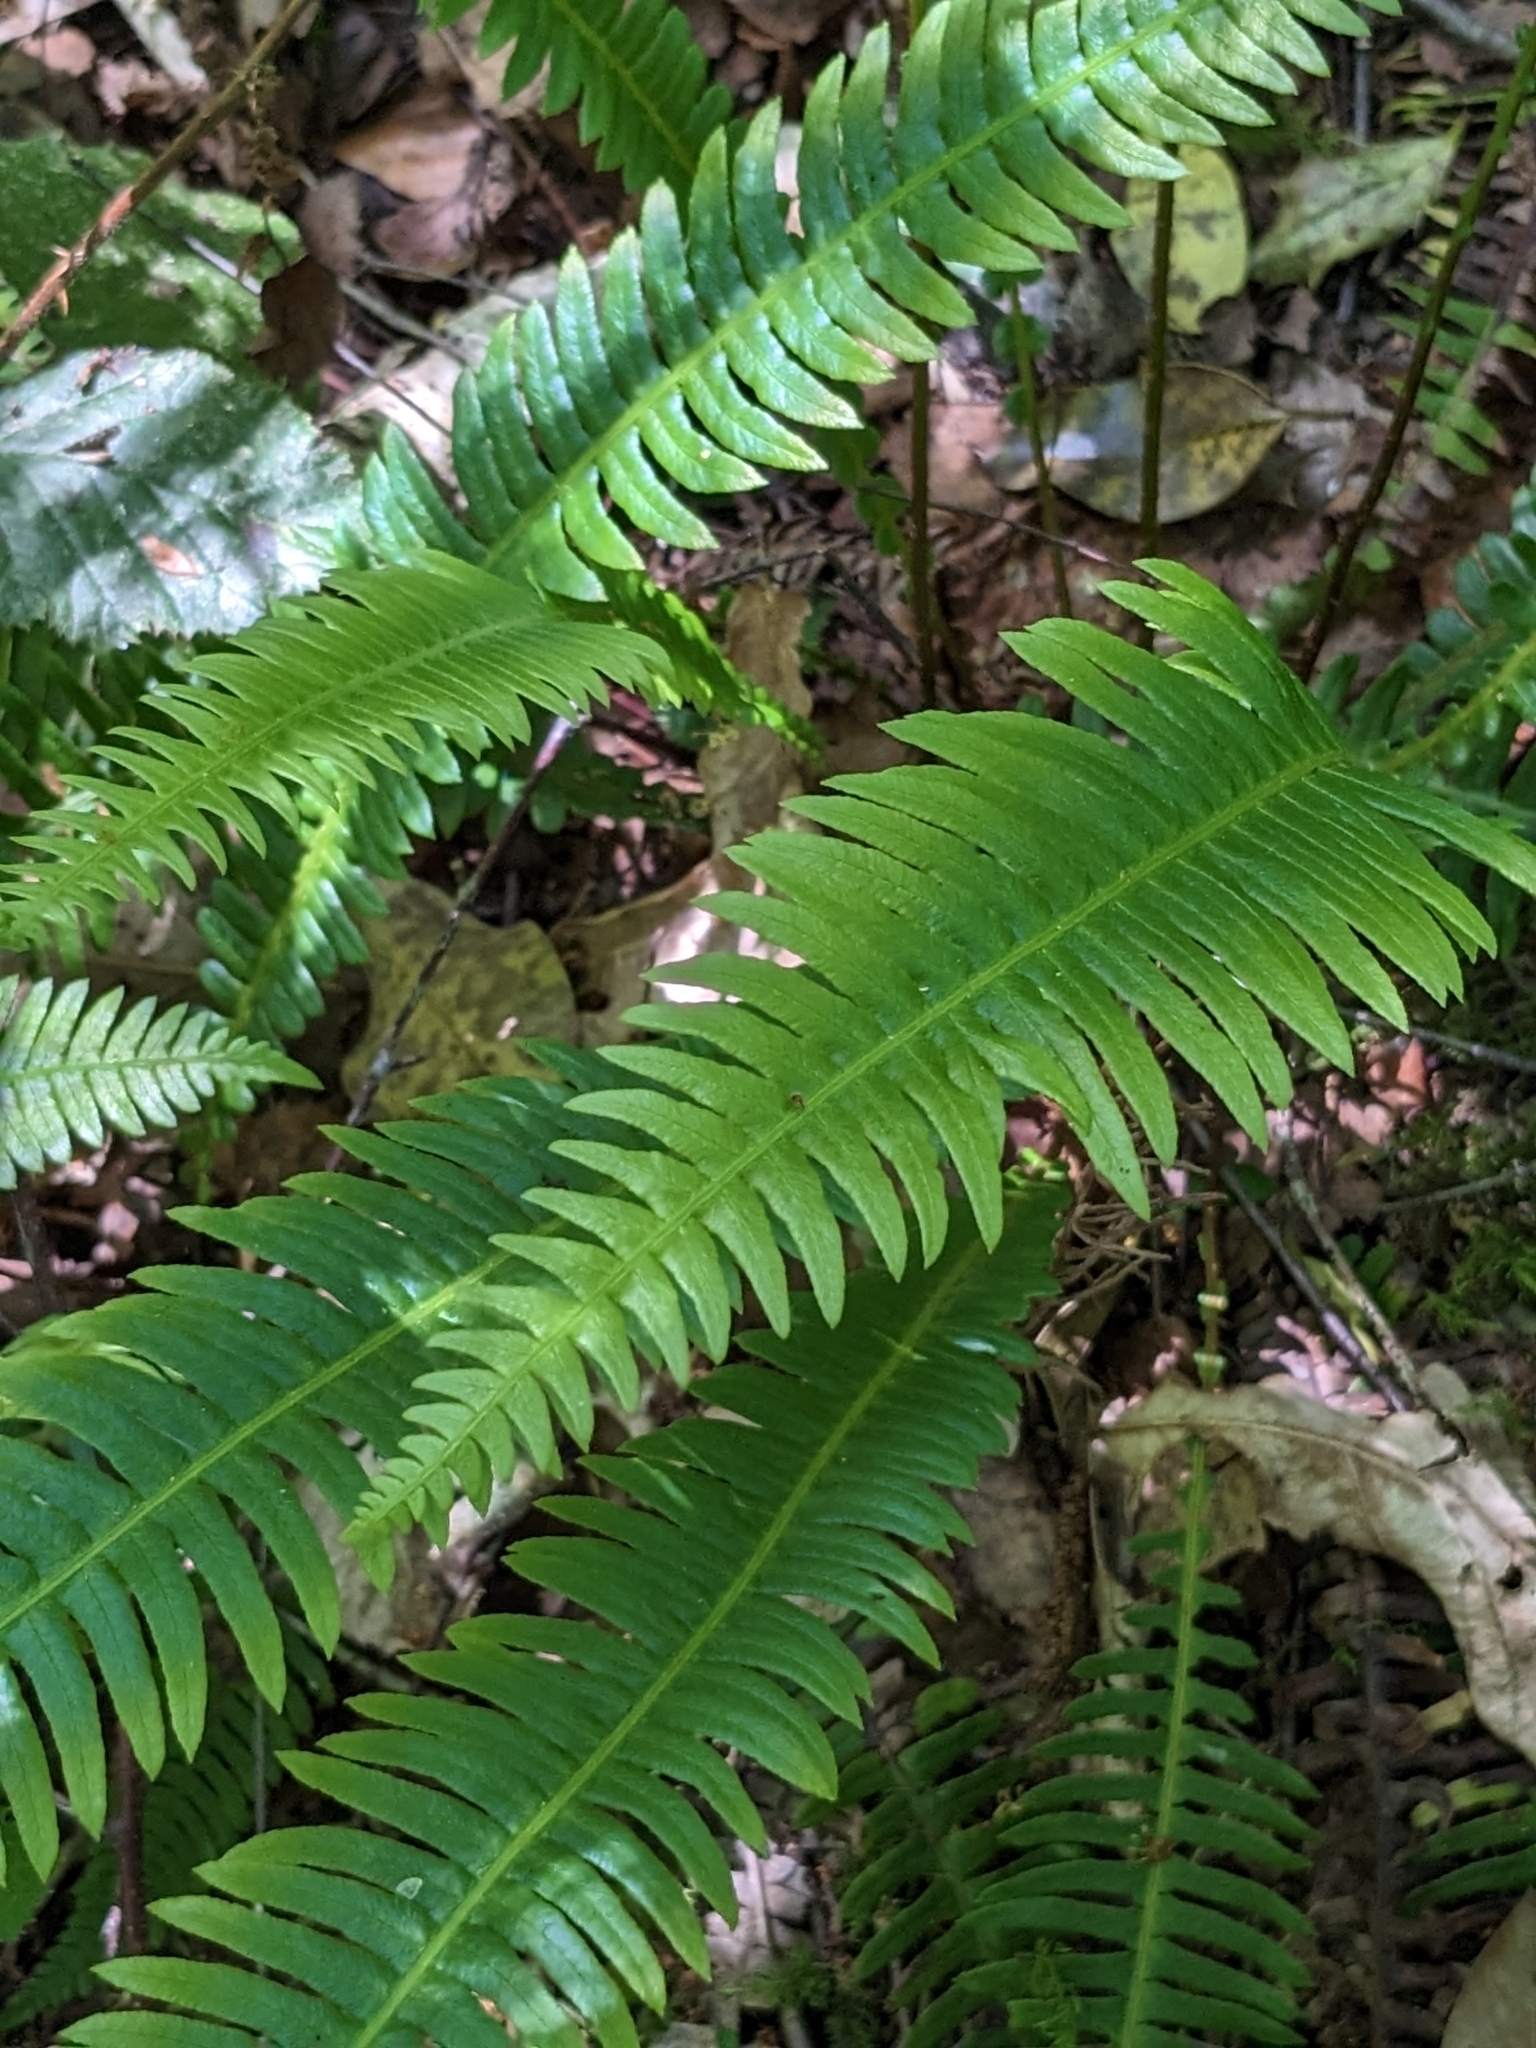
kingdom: Plantae
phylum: Tracheophyta
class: Polypodiopsida
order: Polypodiales
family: Blechnaceae
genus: Struthiopteris
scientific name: Struthiopteris spicant
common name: Deer fern
